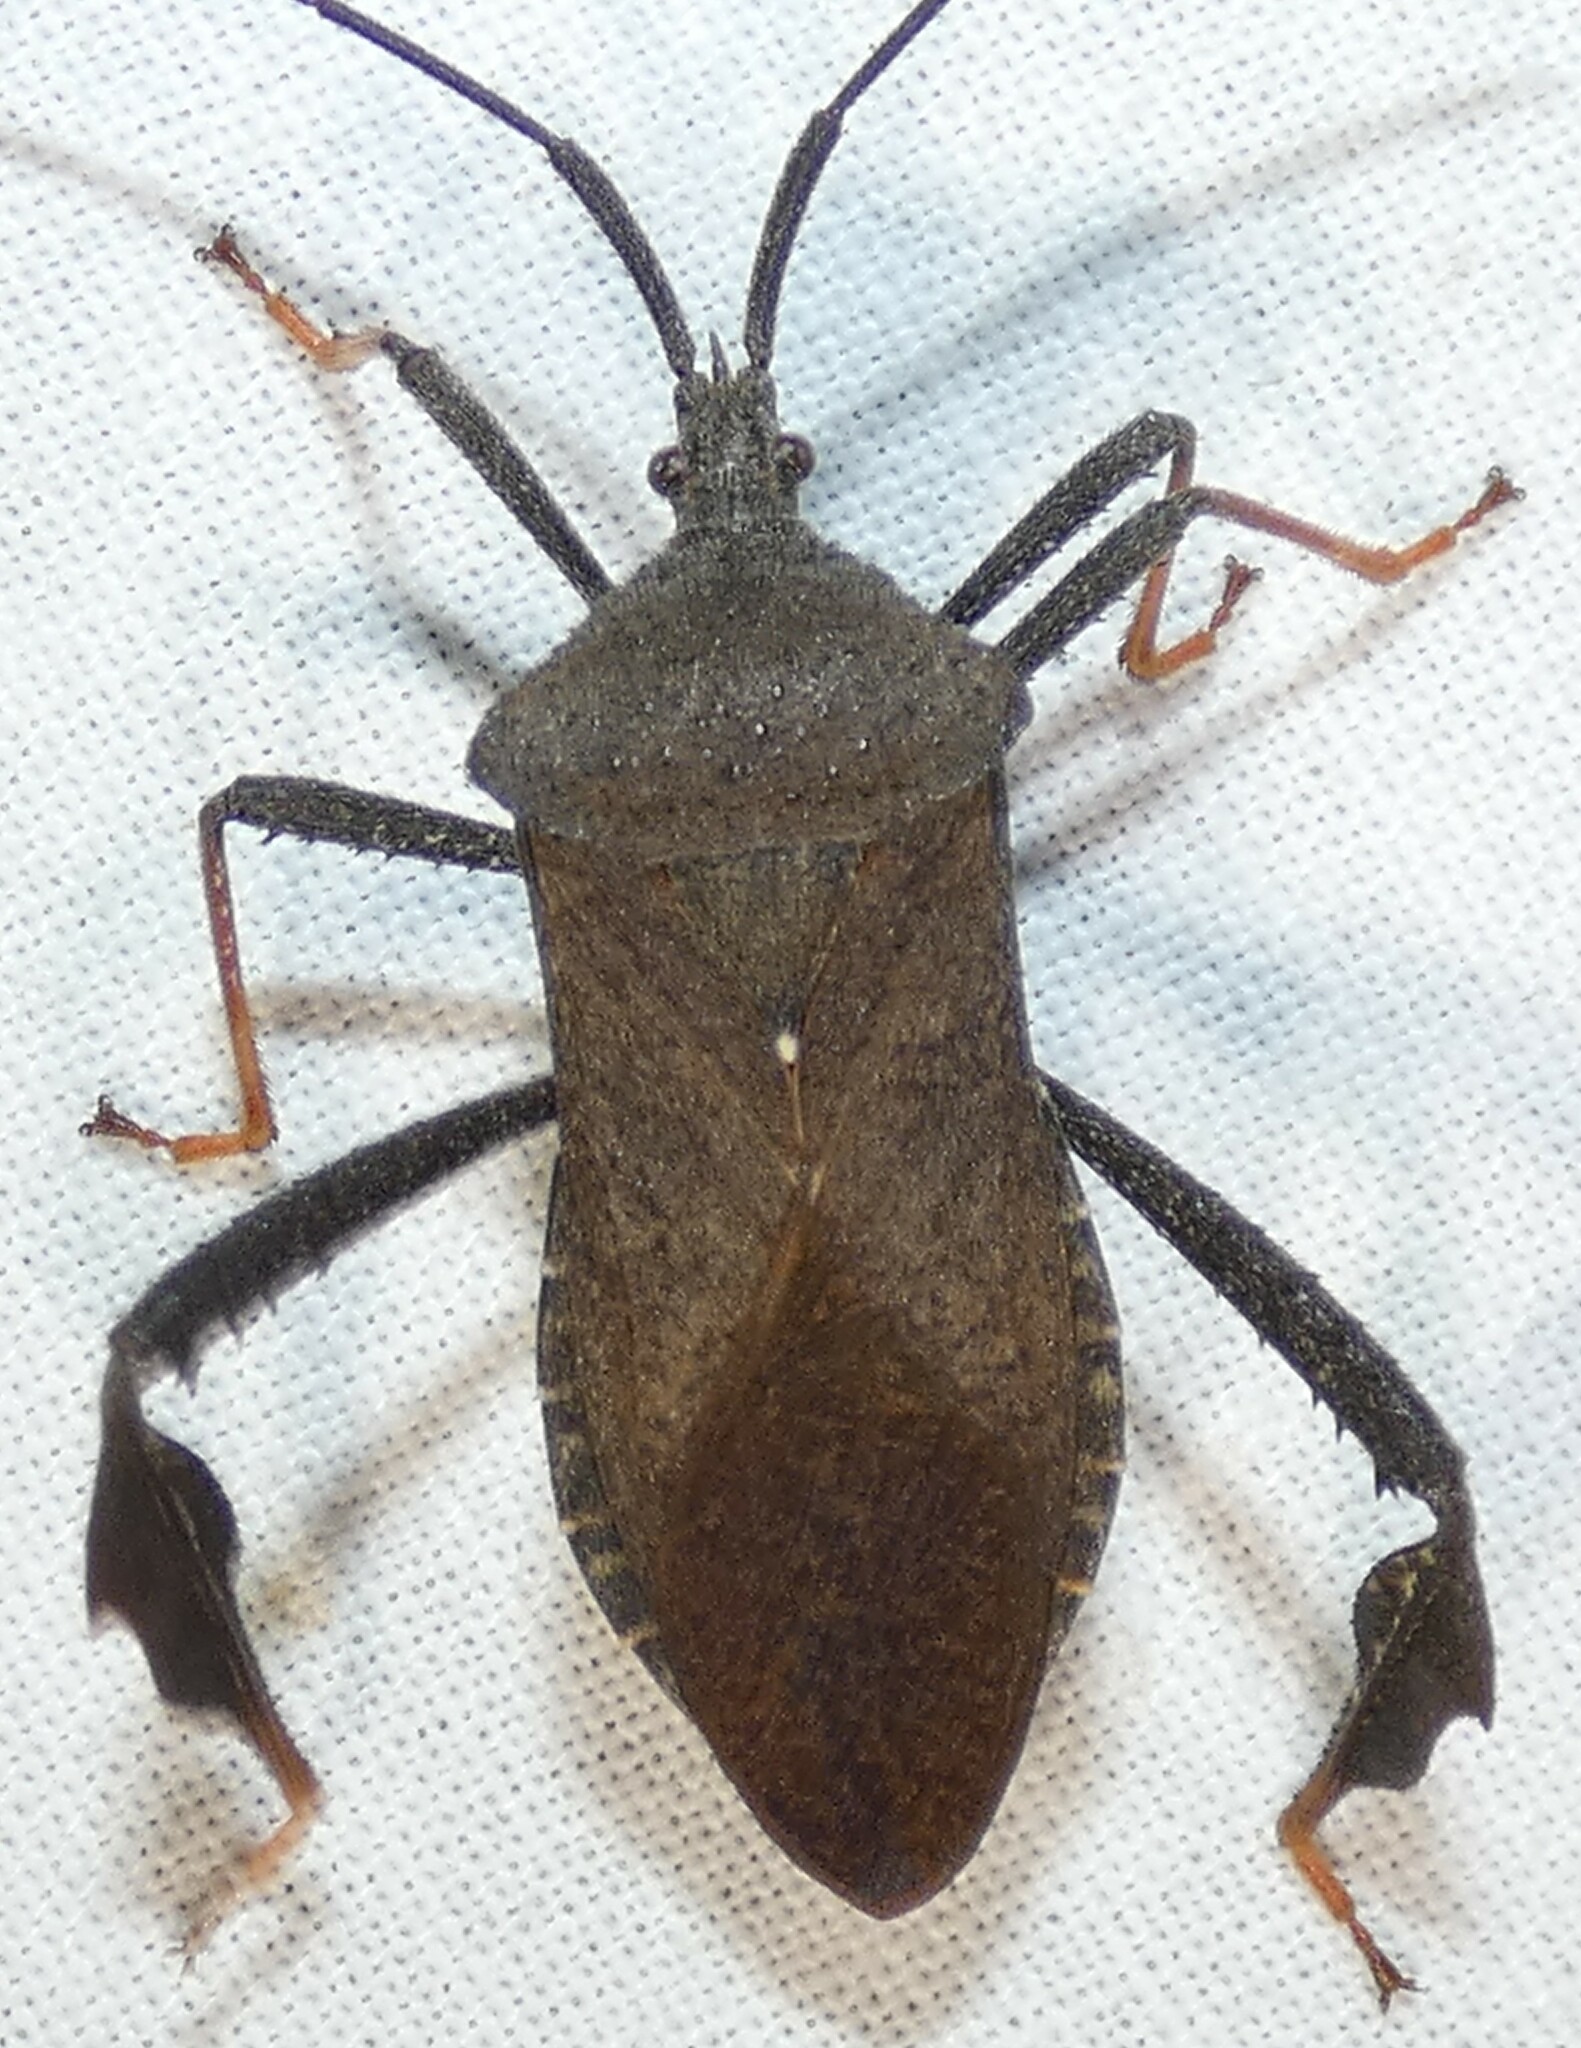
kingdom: Animalia
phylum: Arthropoda
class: Insecta
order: Hemiptera
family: Coreidae
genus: Acanthocephala
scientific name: Acanthocephala terminalis
